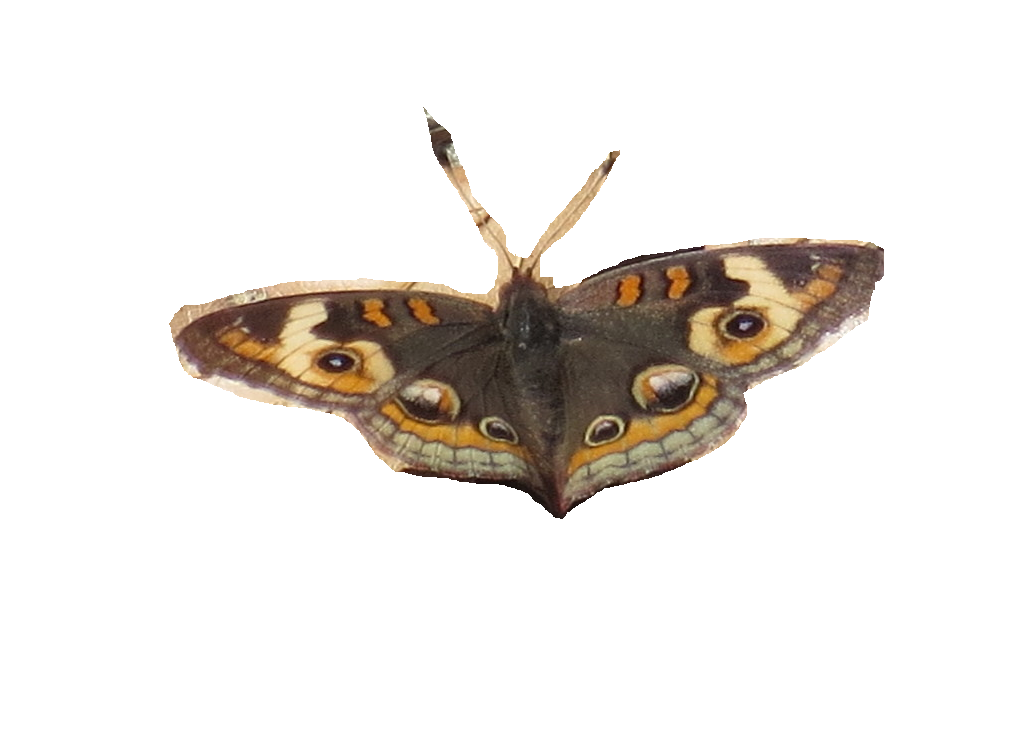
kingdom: Animalia
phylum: Arthropoda
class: Insecta
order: Lepidoptera
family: Nymphalidae
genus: Junonia
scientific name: Junonia coenia
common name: Common buckeye
